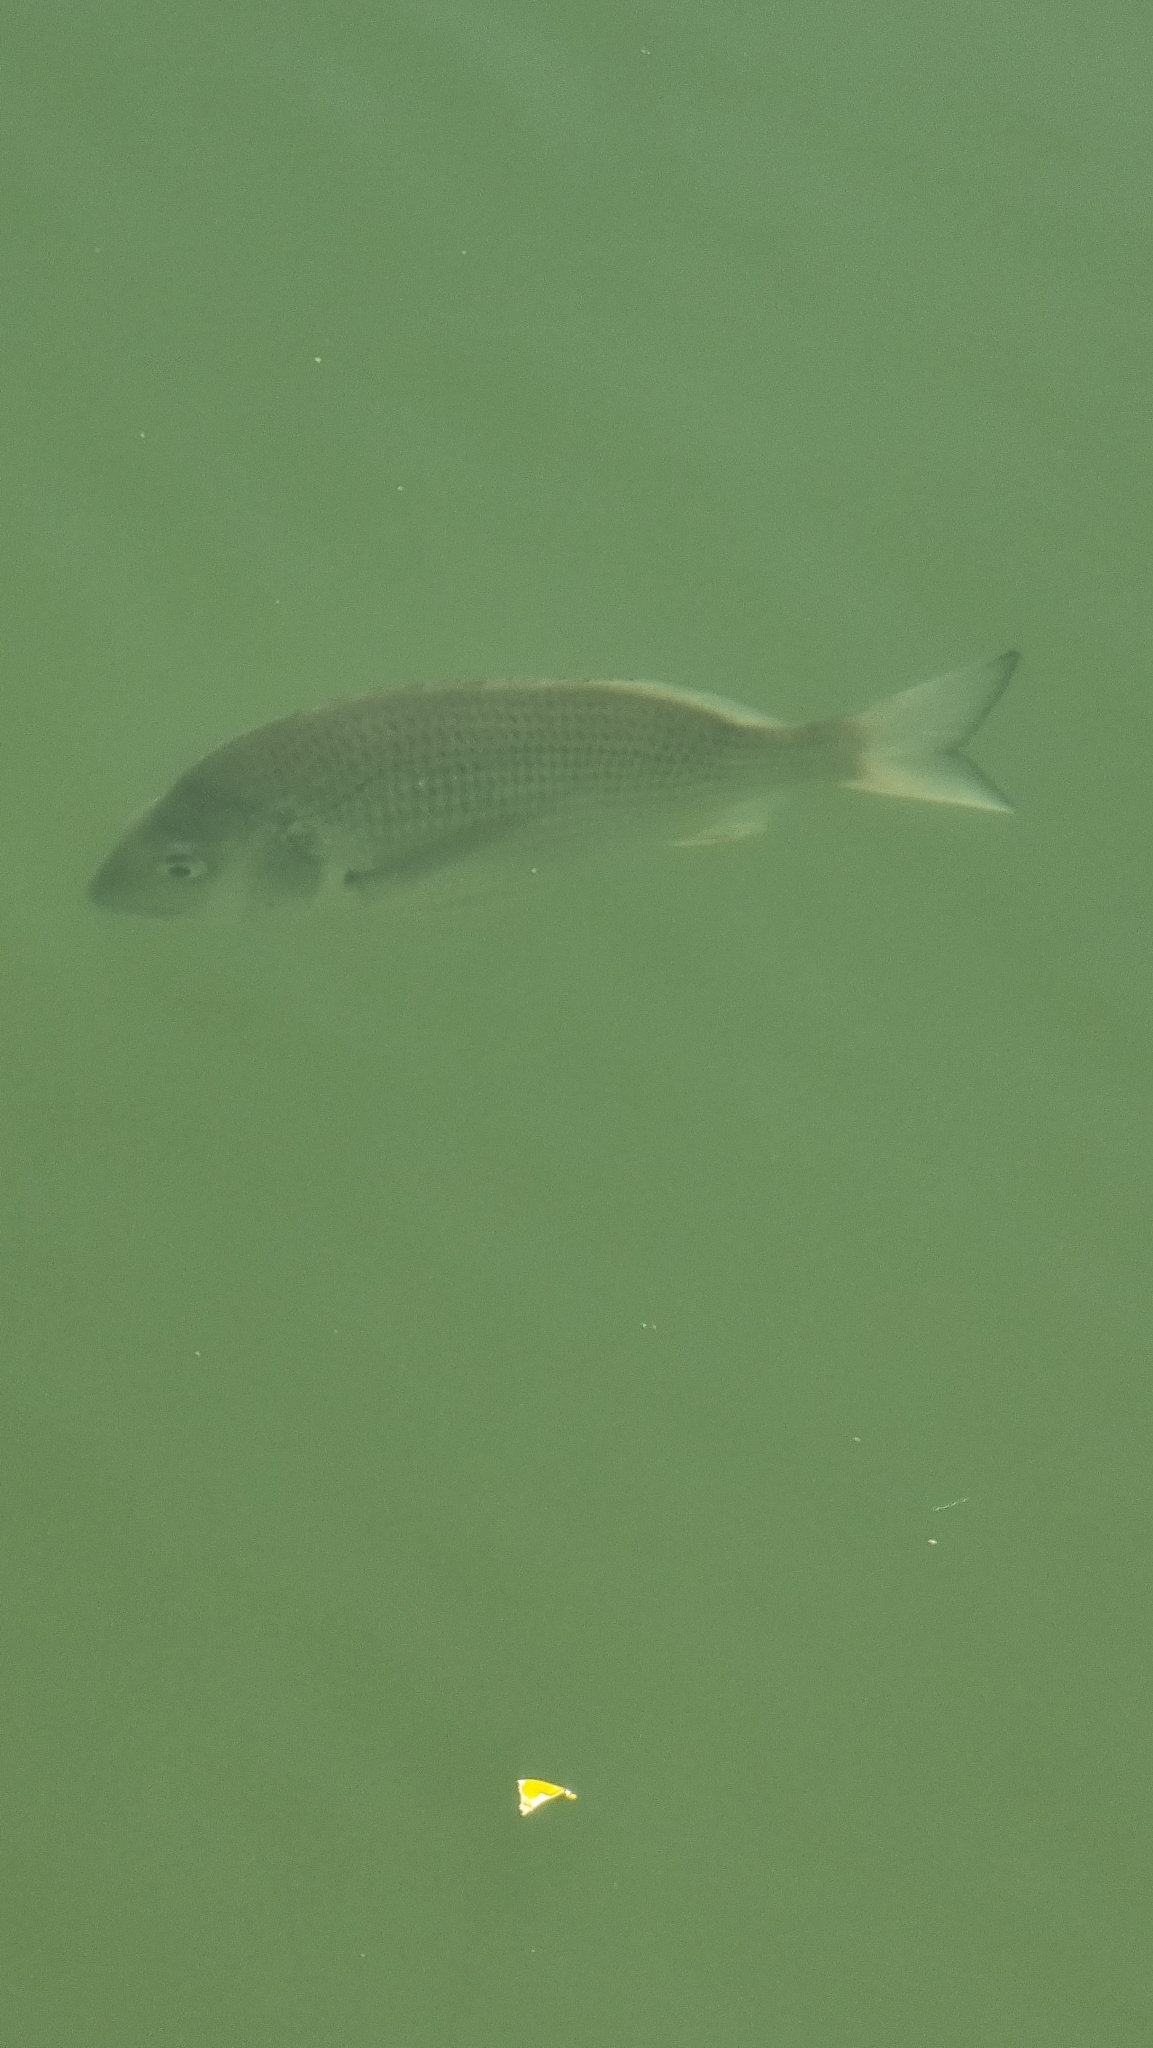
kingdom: Animalia
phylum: Chordata
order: Perciformes
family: Sparidae
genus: Acanthopagrus
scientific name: Acanthopagrus australis
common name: Surf bream
